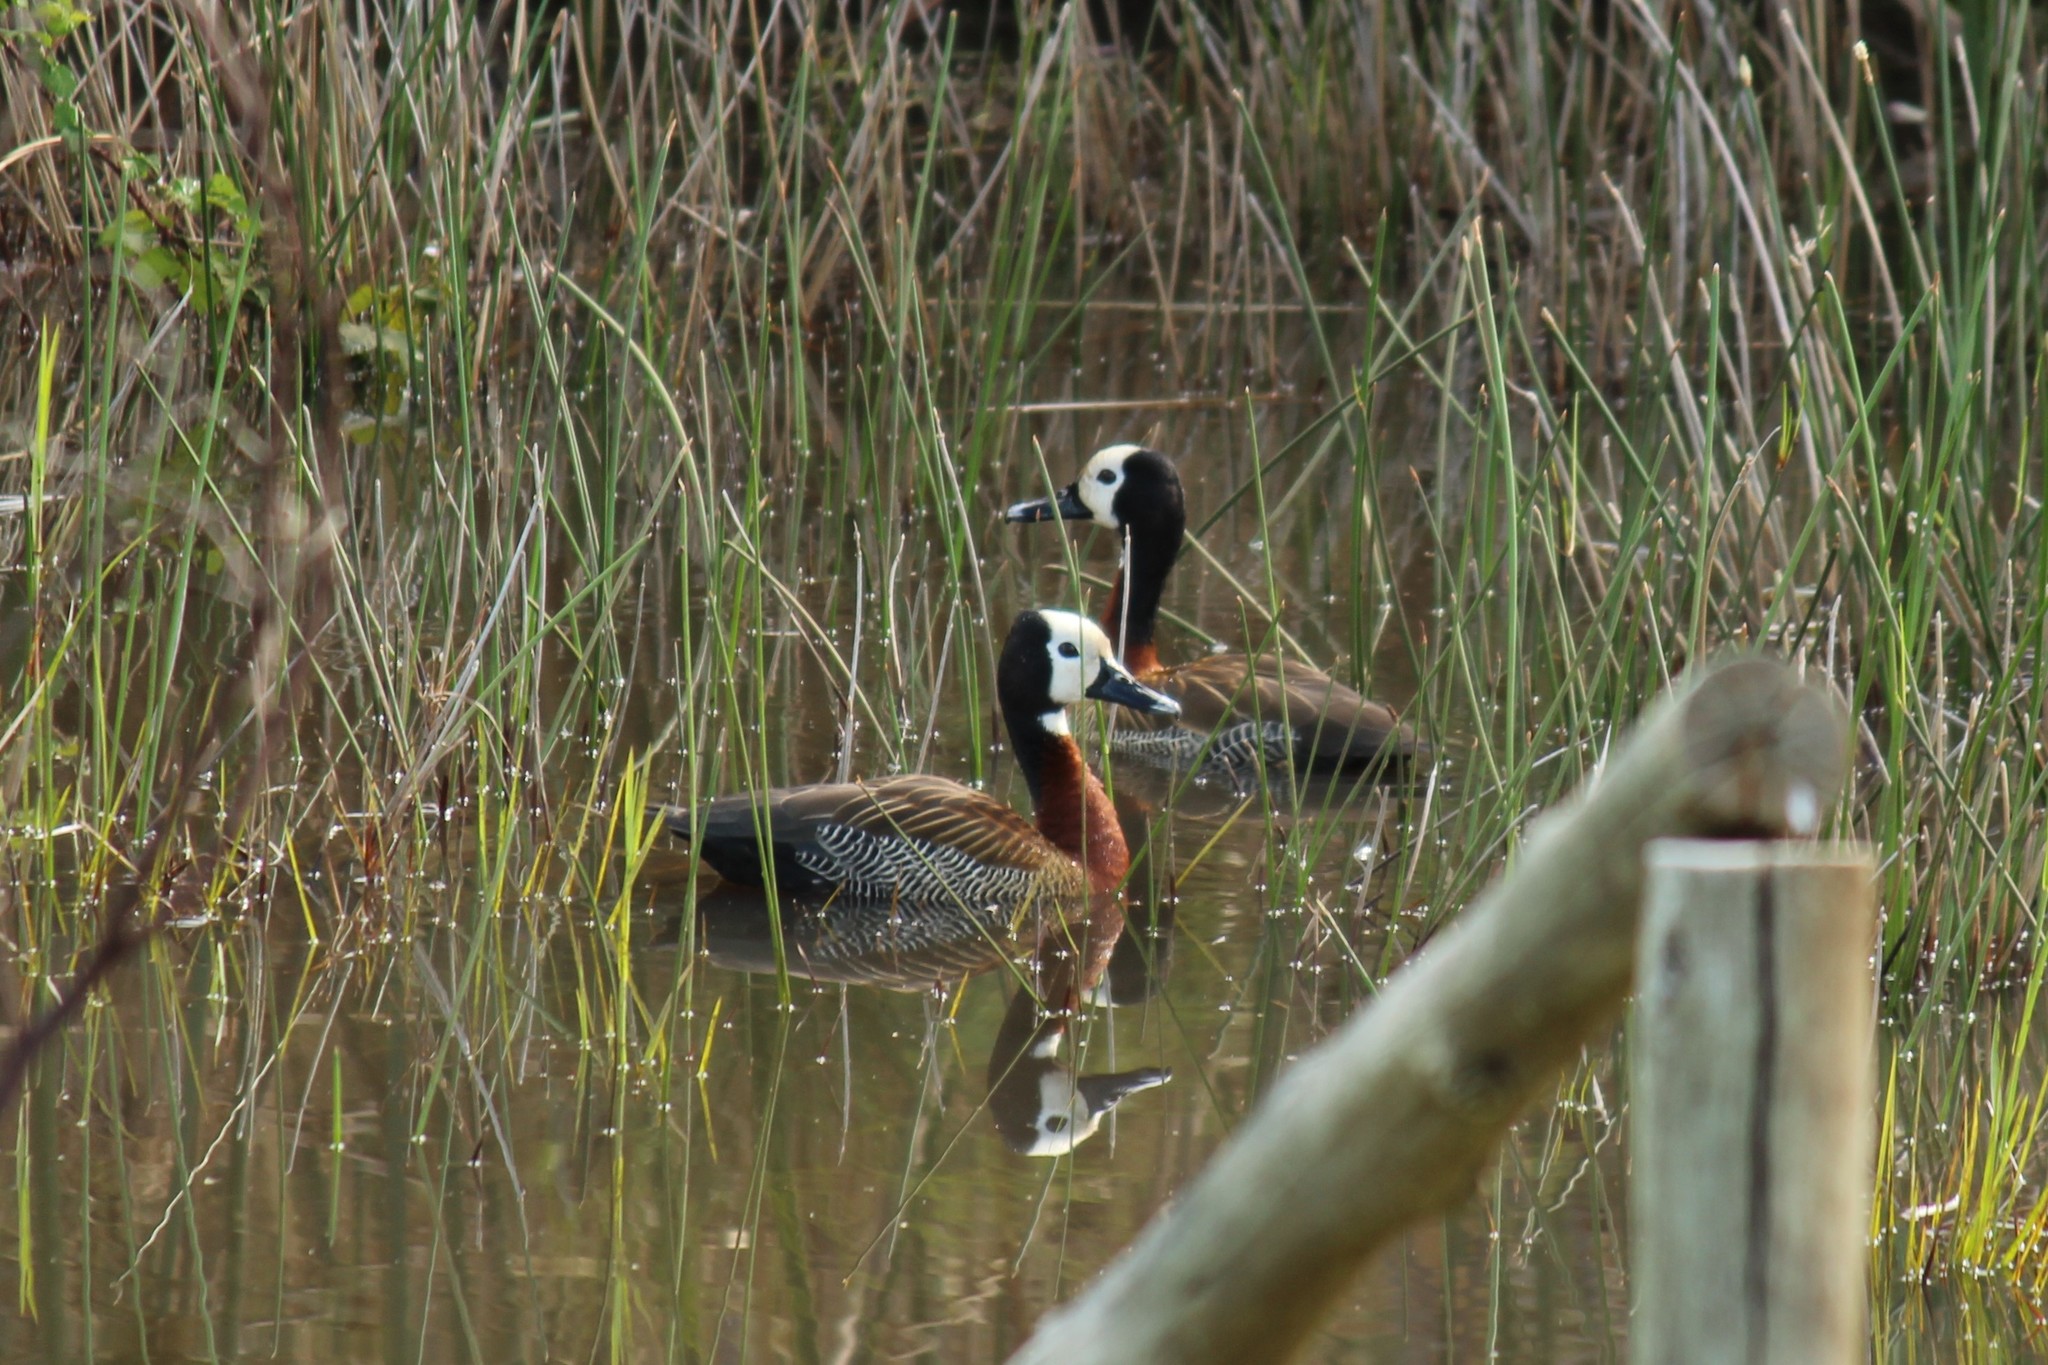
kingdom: Animalia
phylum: Chordata
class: Aves
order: Anseriformes
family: Anatidae
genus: Dendrocygna
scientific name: Dendrocygna viduata
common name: White-faced whistling duck
